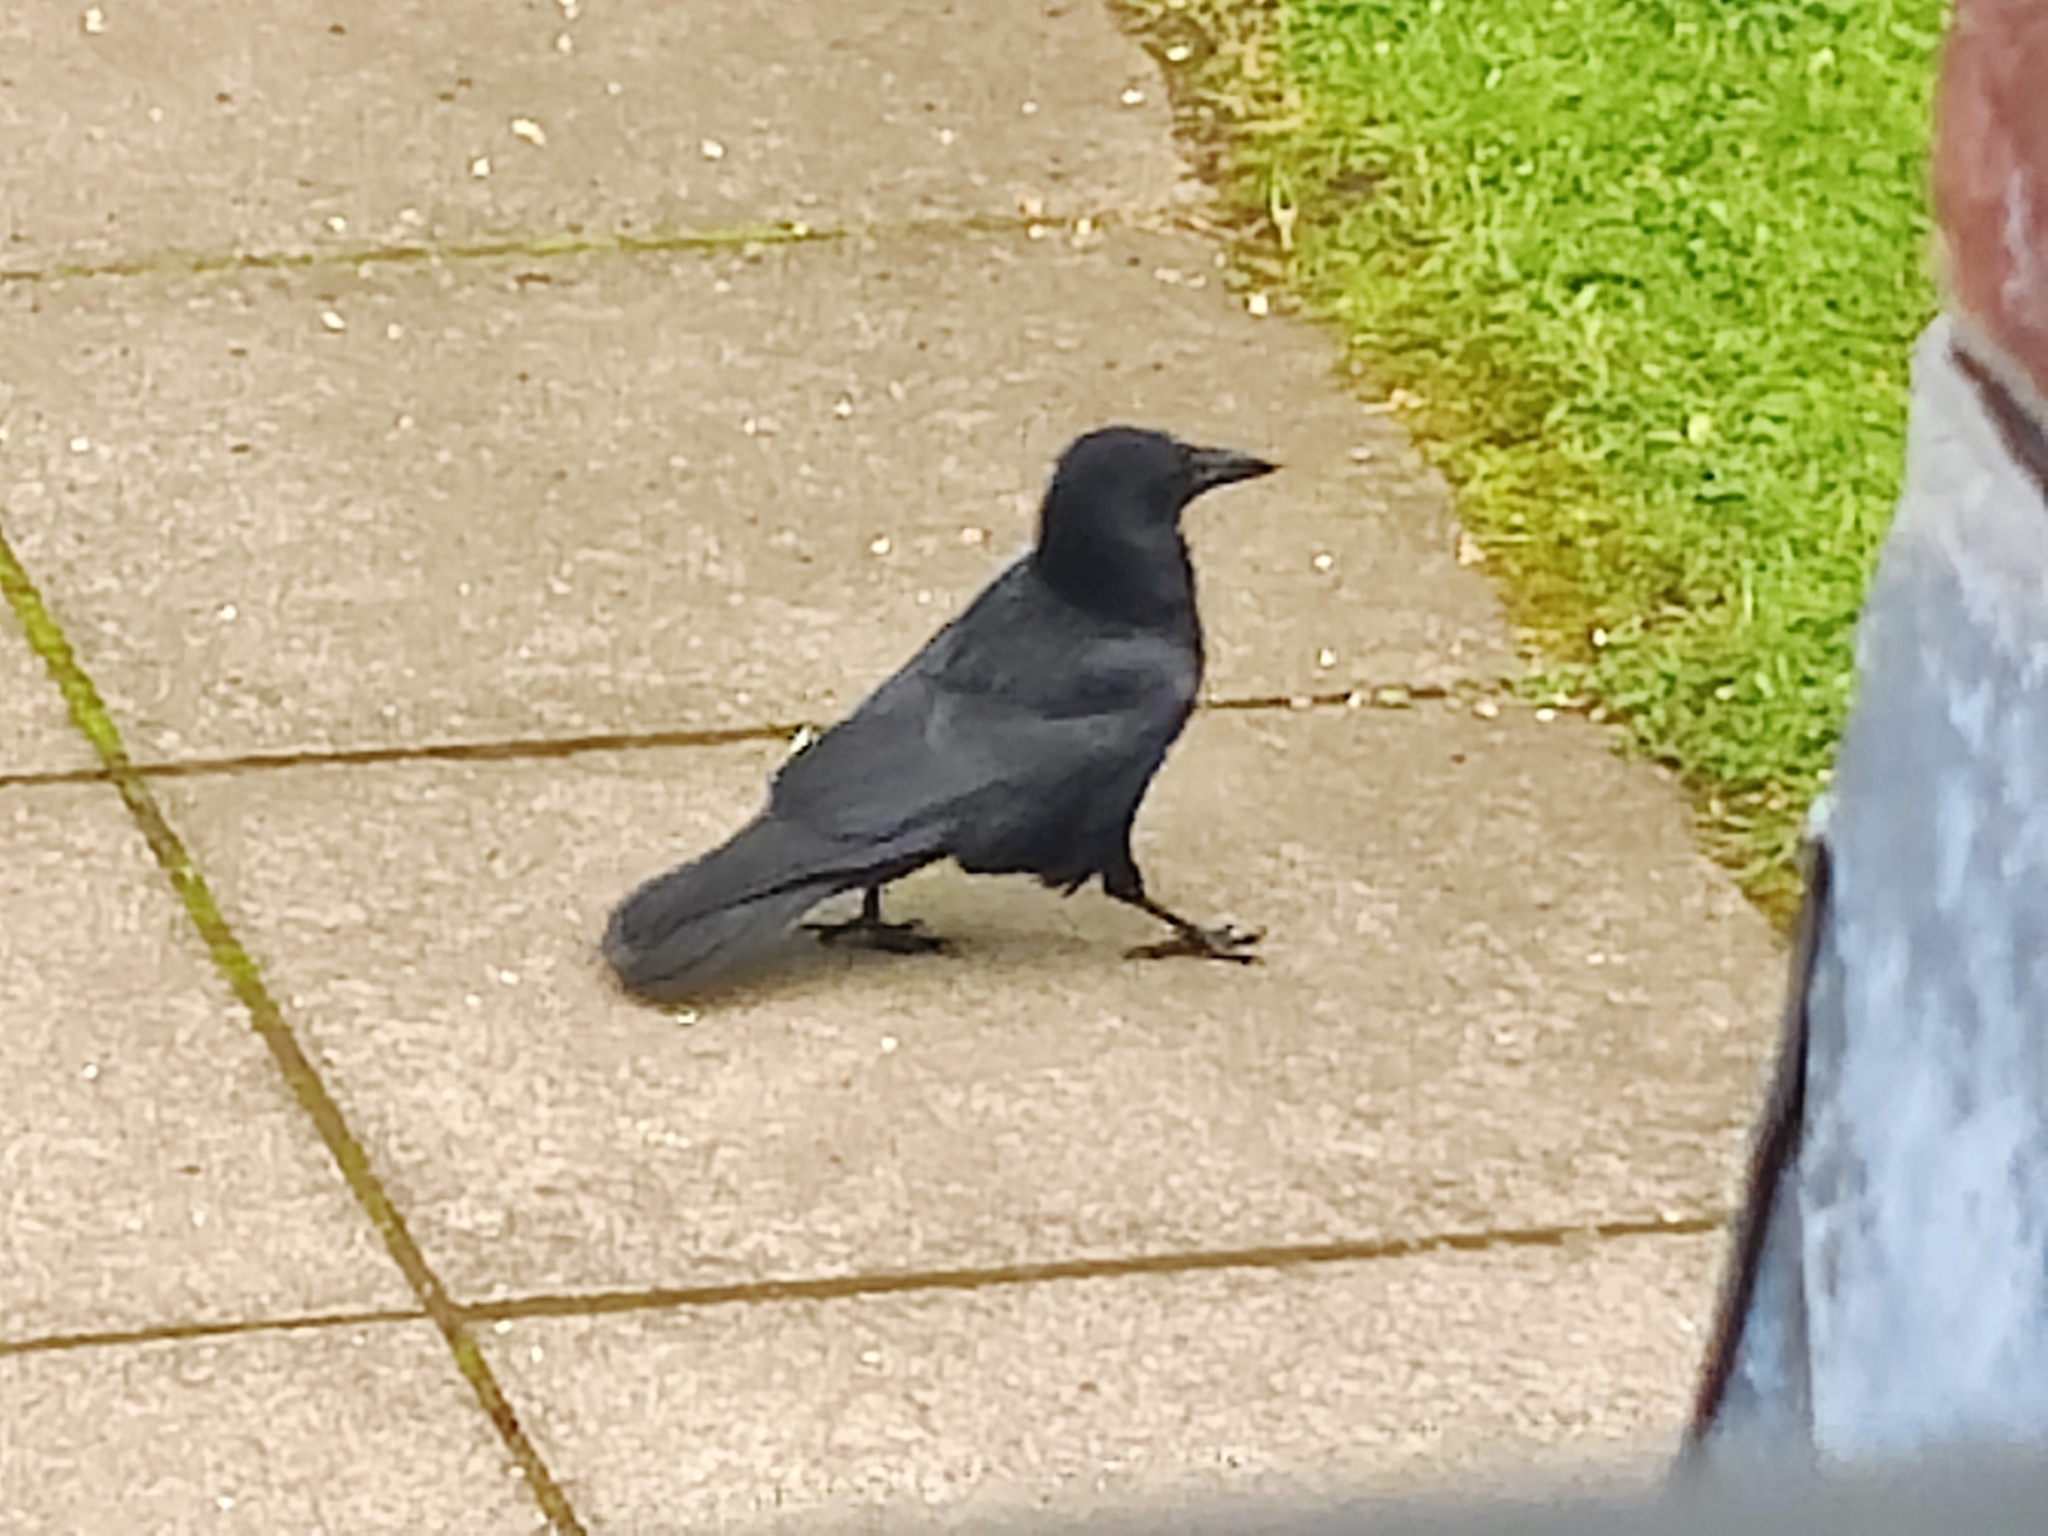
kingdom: Animalia
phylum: Chordata
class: Aves
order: Passeriformes
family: Corvidae
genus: Corvus
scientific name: Corvus corone
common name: Carrion crow
